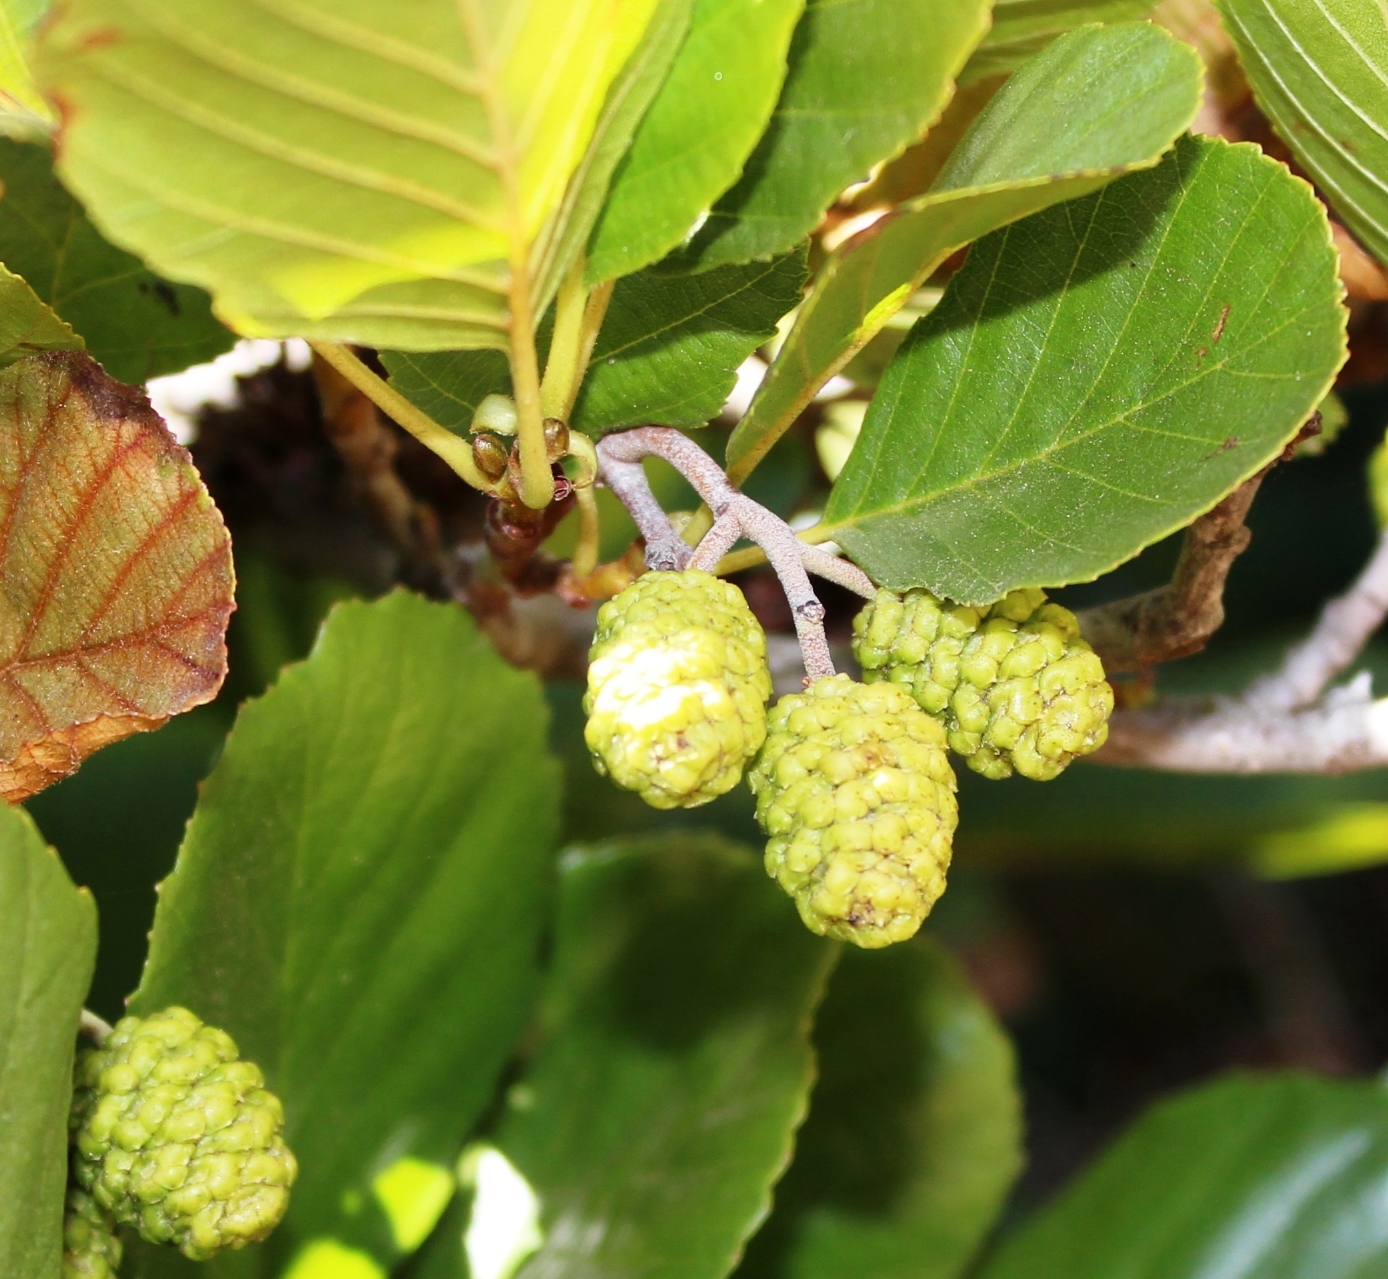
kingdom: Plantae
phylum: Tracheophyta
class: Magnoliopsida
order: Fagales
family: Betulaceae
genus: Alnus
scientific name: Alnus glutinosa
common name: Black alder
